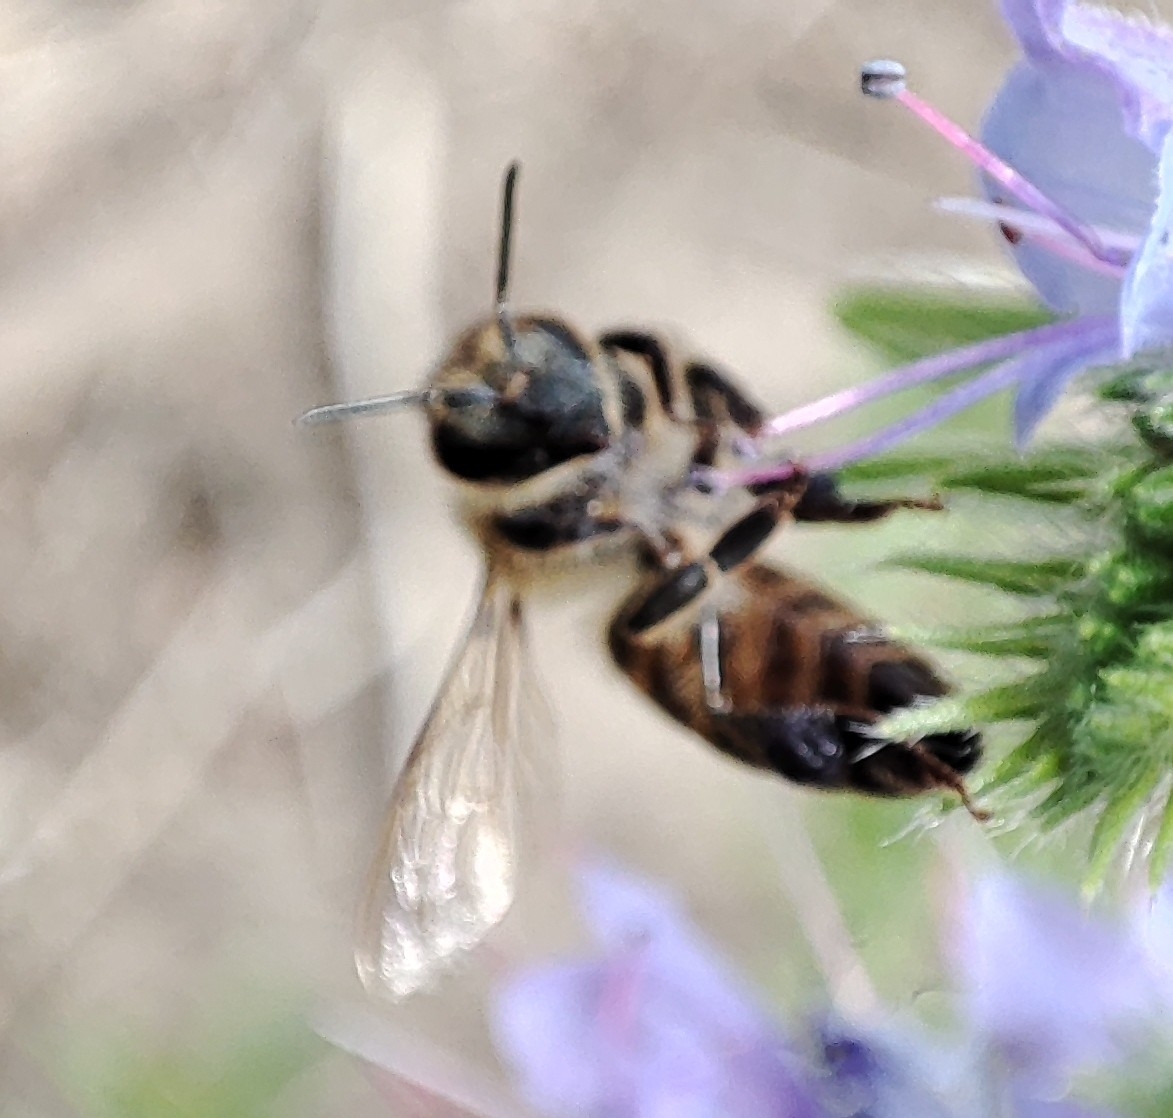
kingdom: Animalia
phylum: Arthropoda
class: Insecta
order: Hymenoptera
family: Apidae
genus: Apis
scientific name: Apis mellifera
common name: Honey bee
